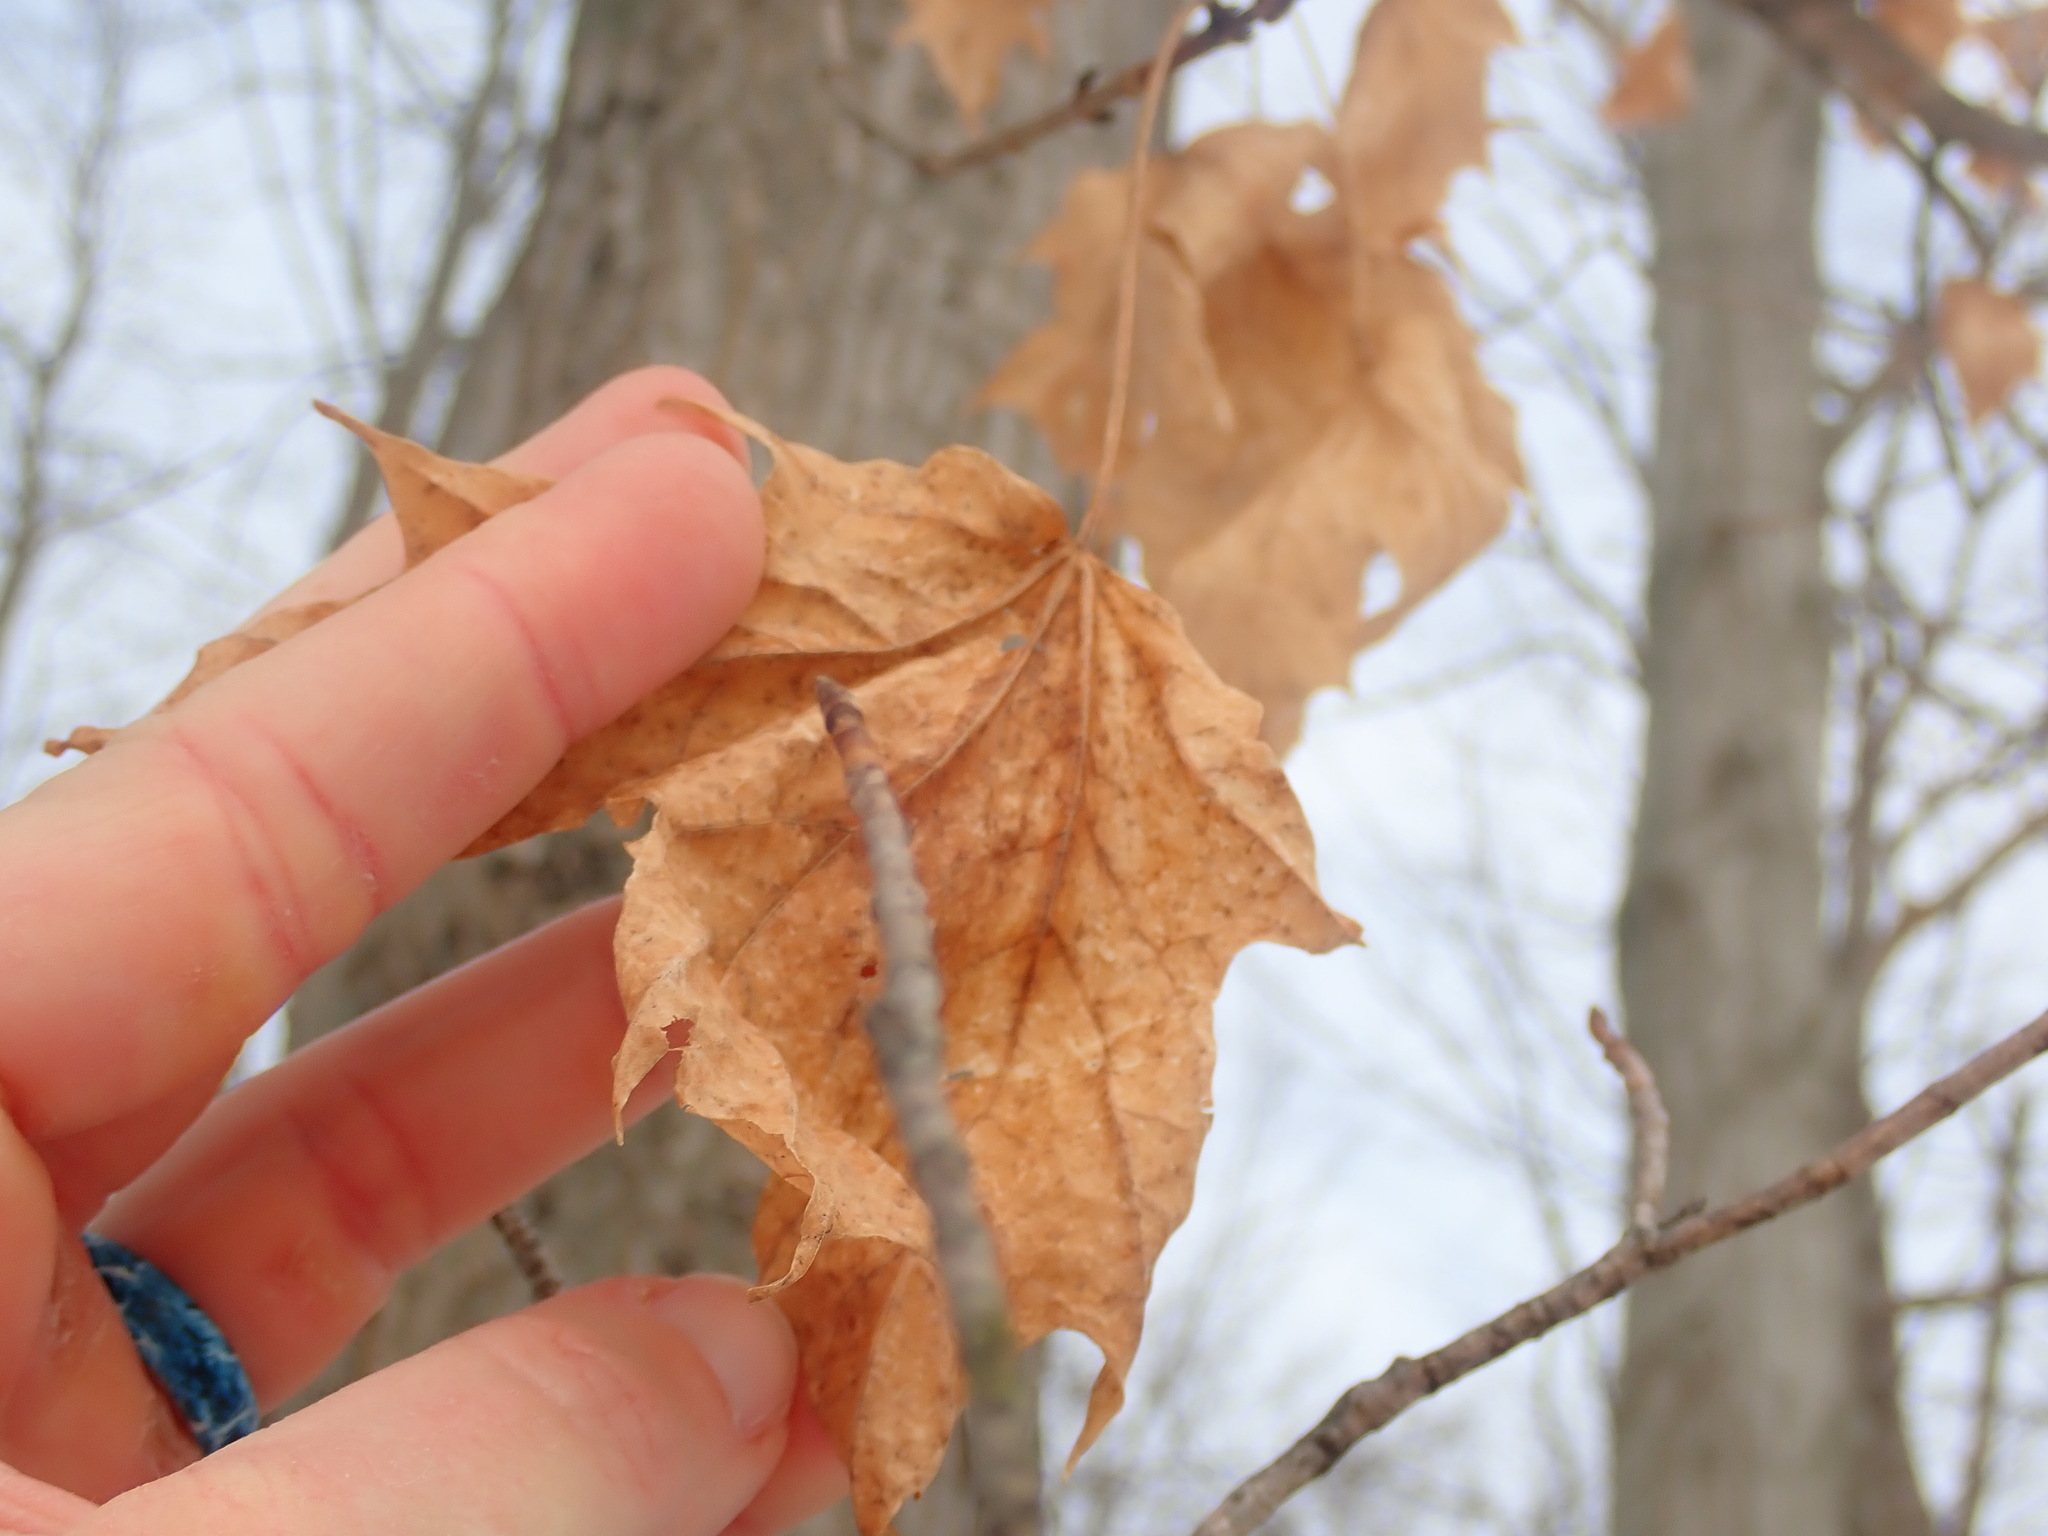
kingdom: Plantae
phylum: Tracheophyta
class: Magnoliopsida
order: Sapindales
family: Sapindaceae
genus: Acer
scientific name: Acer saccharum
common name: Sugar maple
